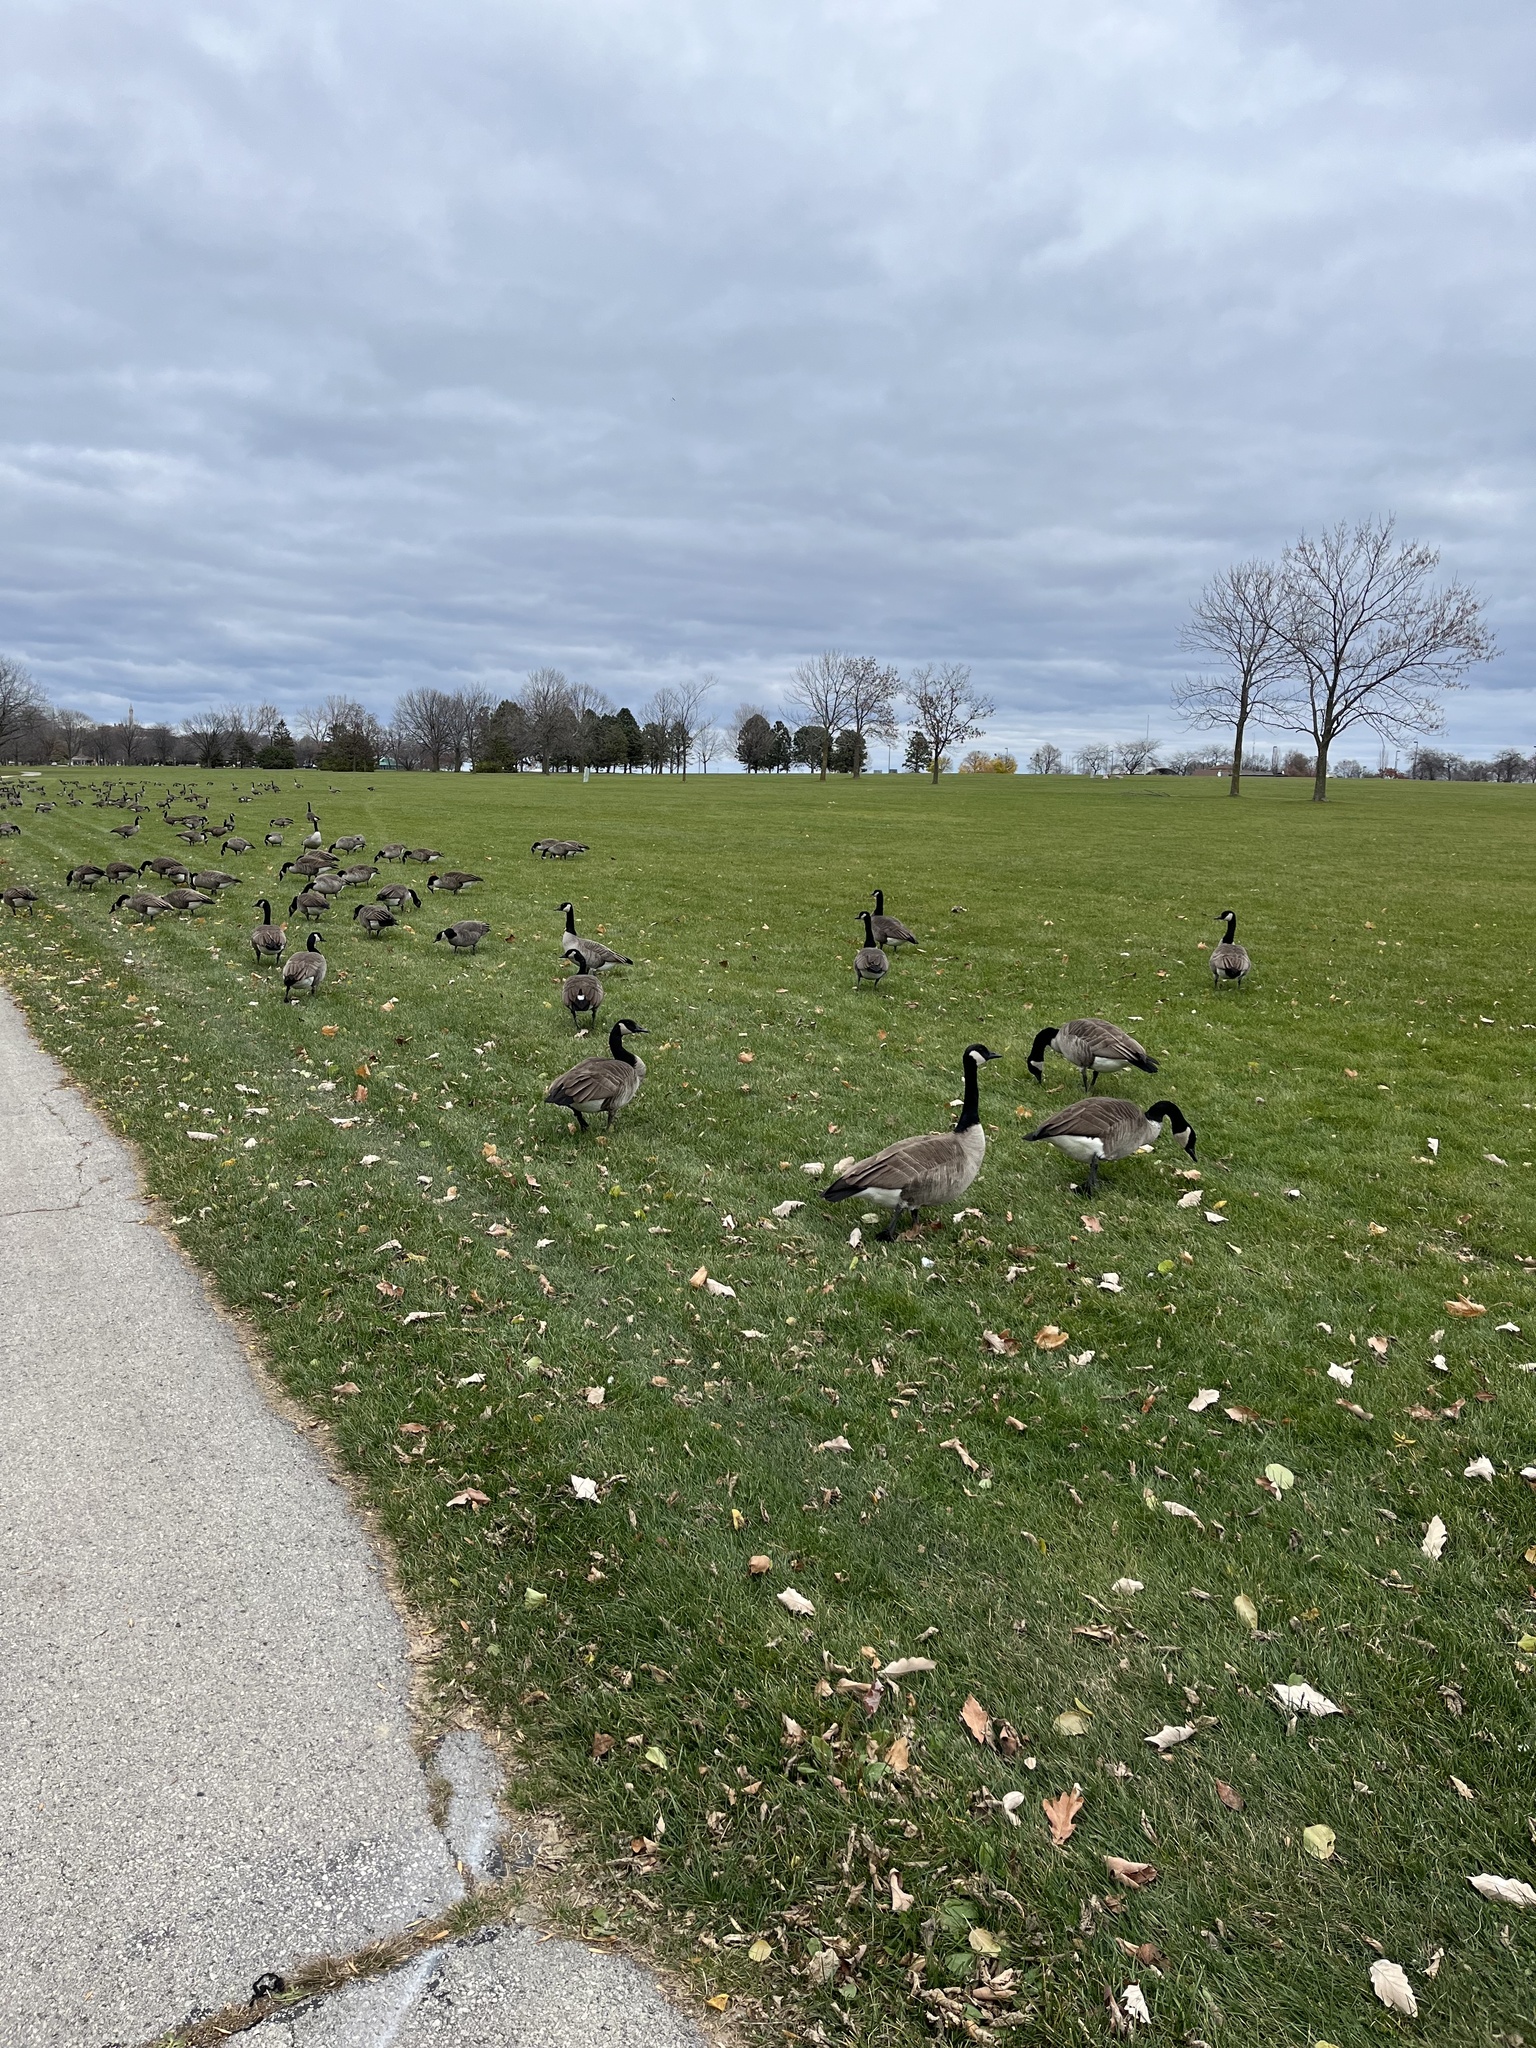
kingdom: Animalia
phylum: Chordata
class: Aves
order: Anseriformes
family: Anatidae
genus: Branta
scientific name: Branta canadensis
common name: Canada goose
